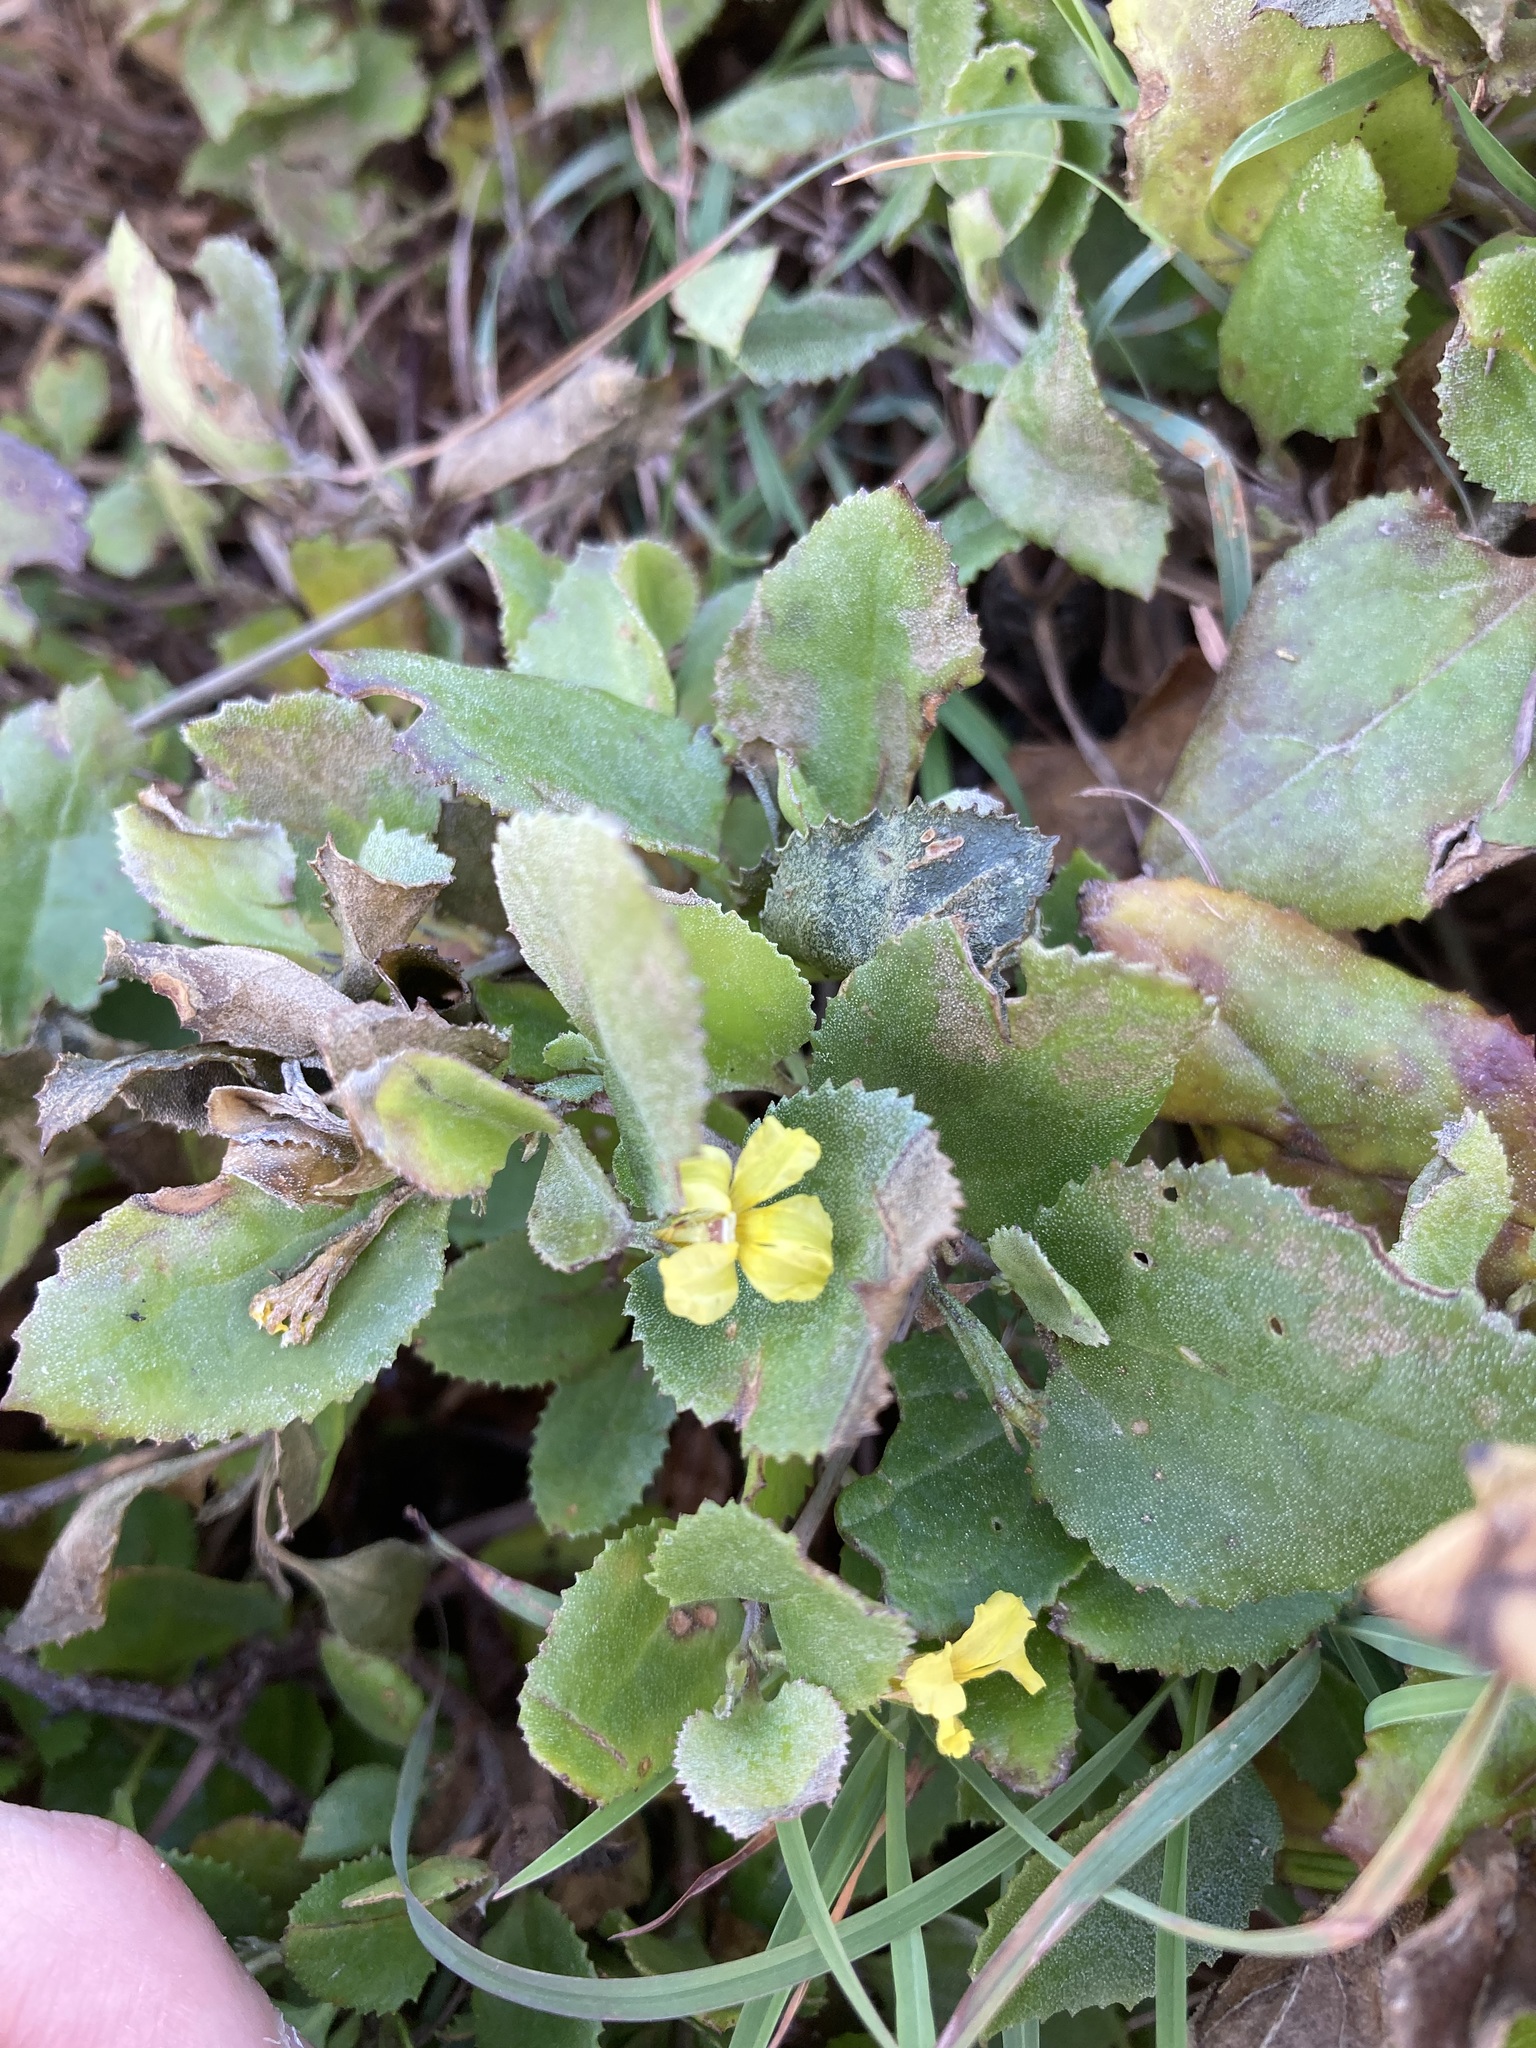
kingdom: Plantae
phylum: Tracheophyta
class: Magnoliopsida
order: Asterales
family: Goodeniaceae
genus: Goodenia
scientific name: Goodenia ovata
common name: Hop goodenia
